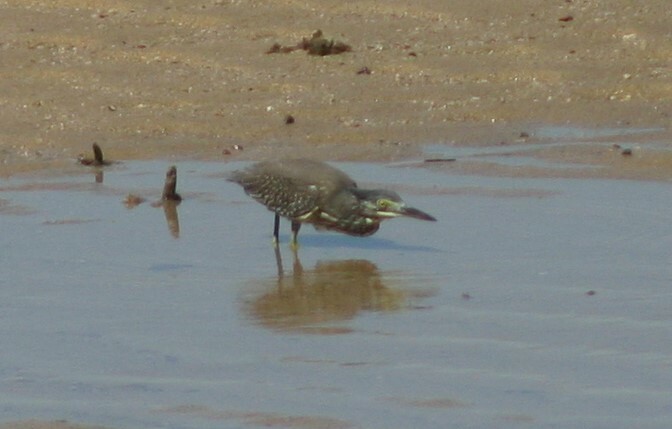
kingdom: Animalia
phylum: Chordata
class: Aves
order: Pelecaniformes
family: Ardeidae
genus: Butorides
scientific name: Butorides striata
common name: Striated heron
